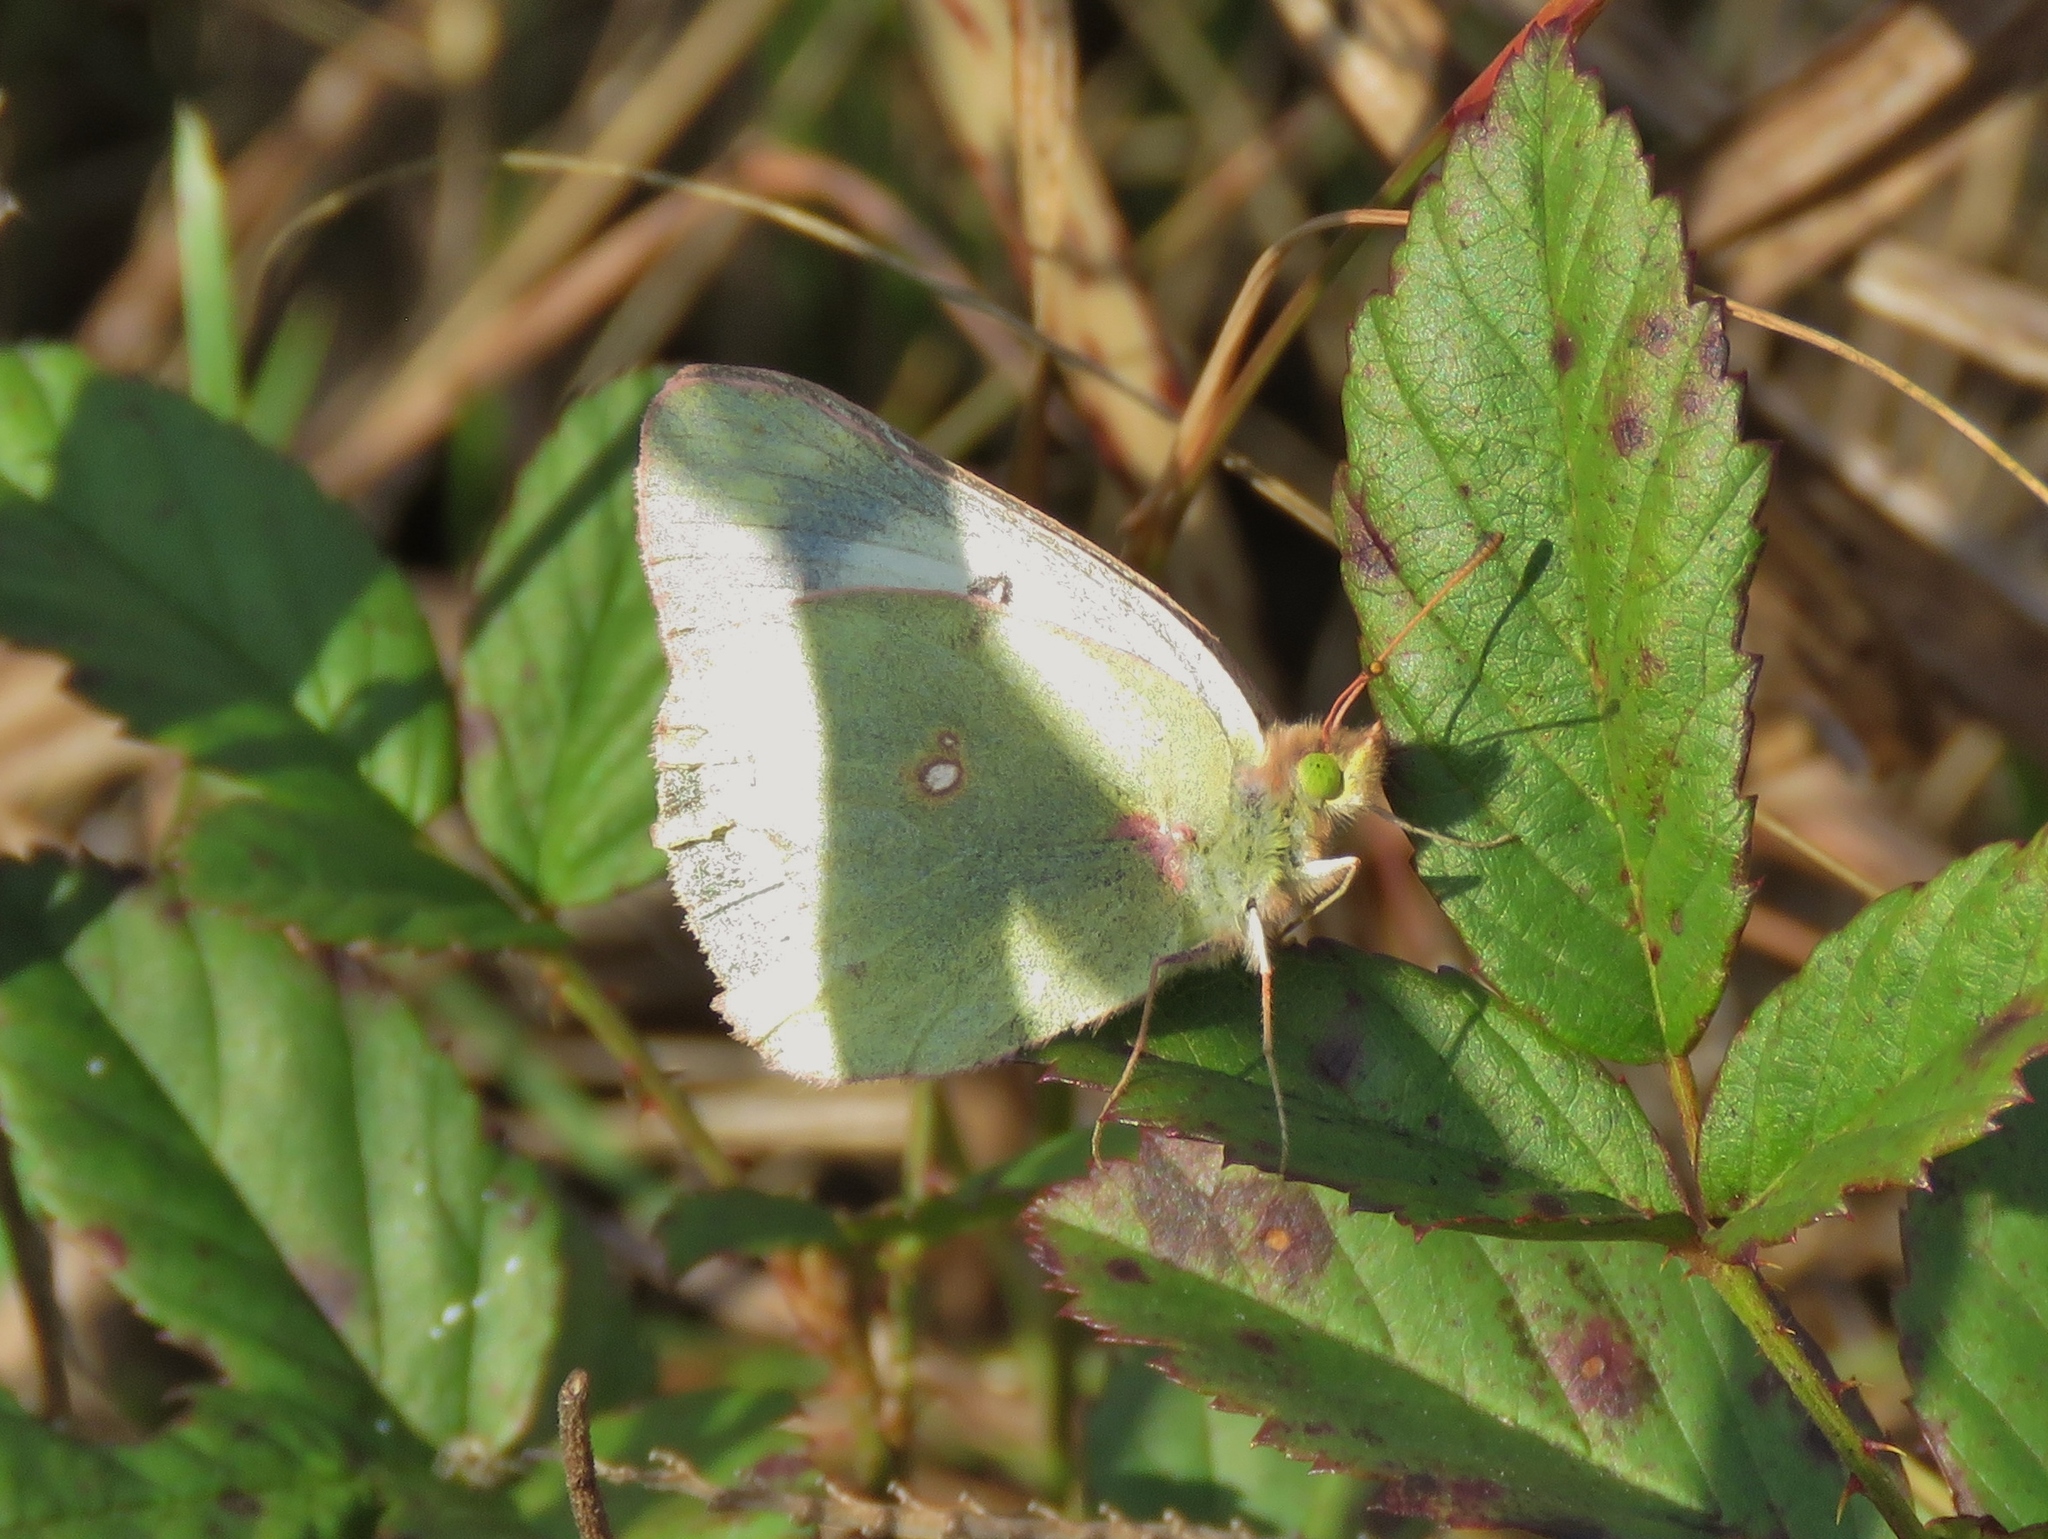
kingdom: Animalia
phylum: Arthropoda
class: Insecta
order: Lepidoptera
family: Pieridae
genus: Colias
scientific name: Colias eurytheme
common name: Alfalfa butterfly
